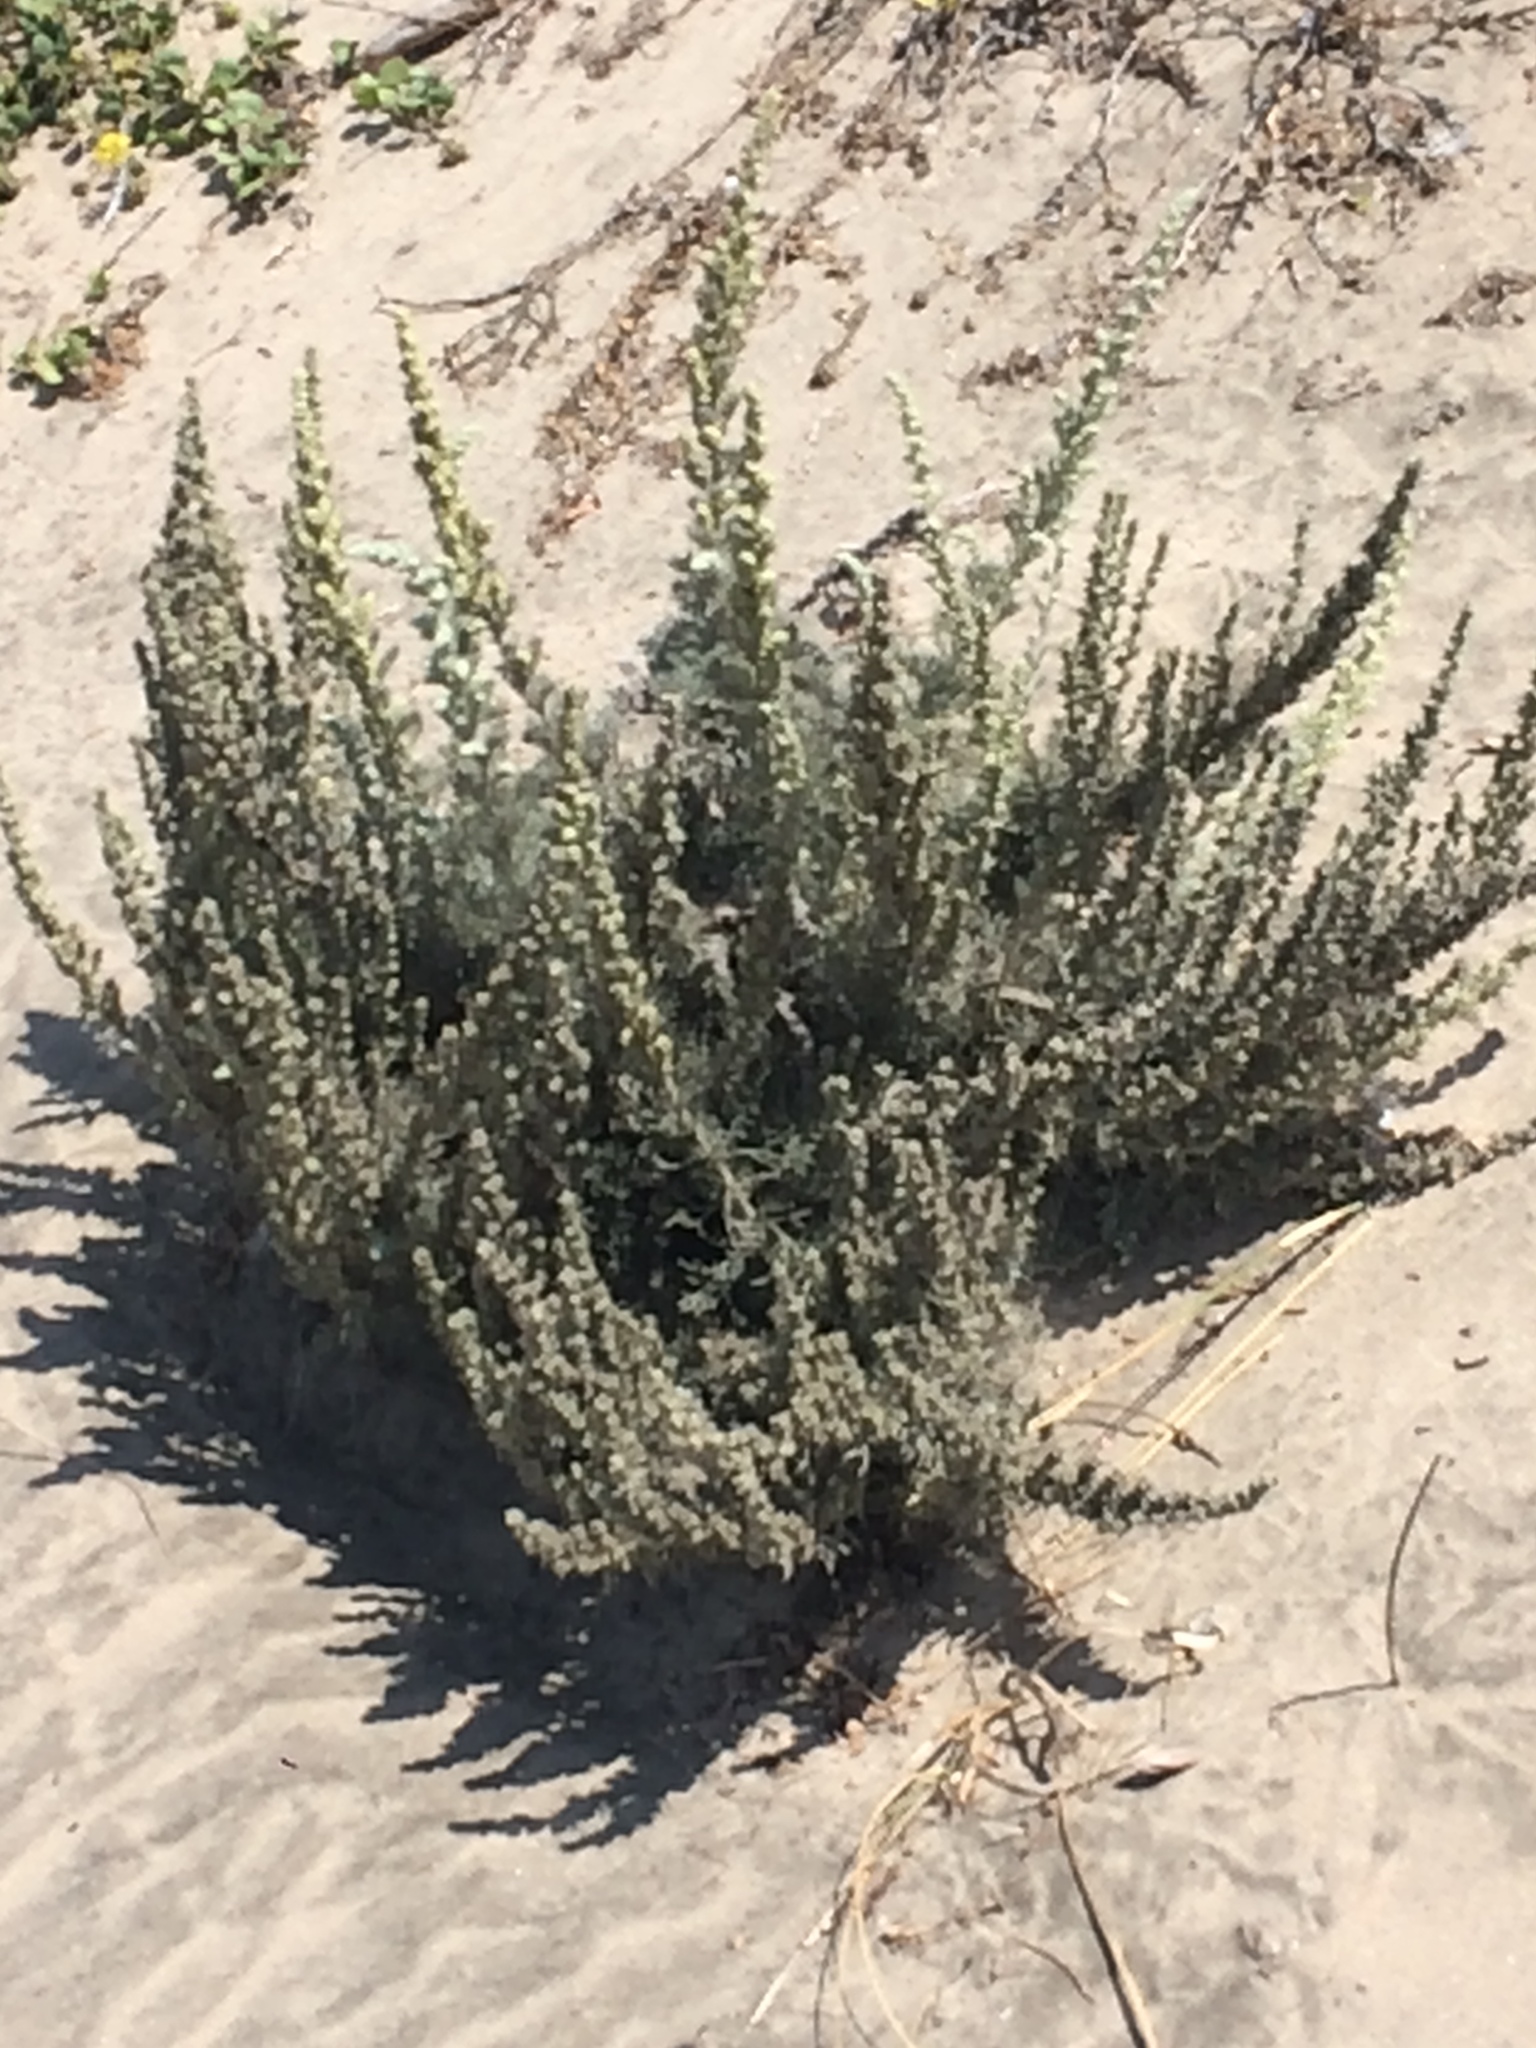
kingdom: Plantae
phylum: Tracheophyta
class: Magnoliopsida
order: Asterales
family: Asteraceae
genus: Artemisia
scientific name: Artemisia pycnocephala
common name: Coastal sagewort
